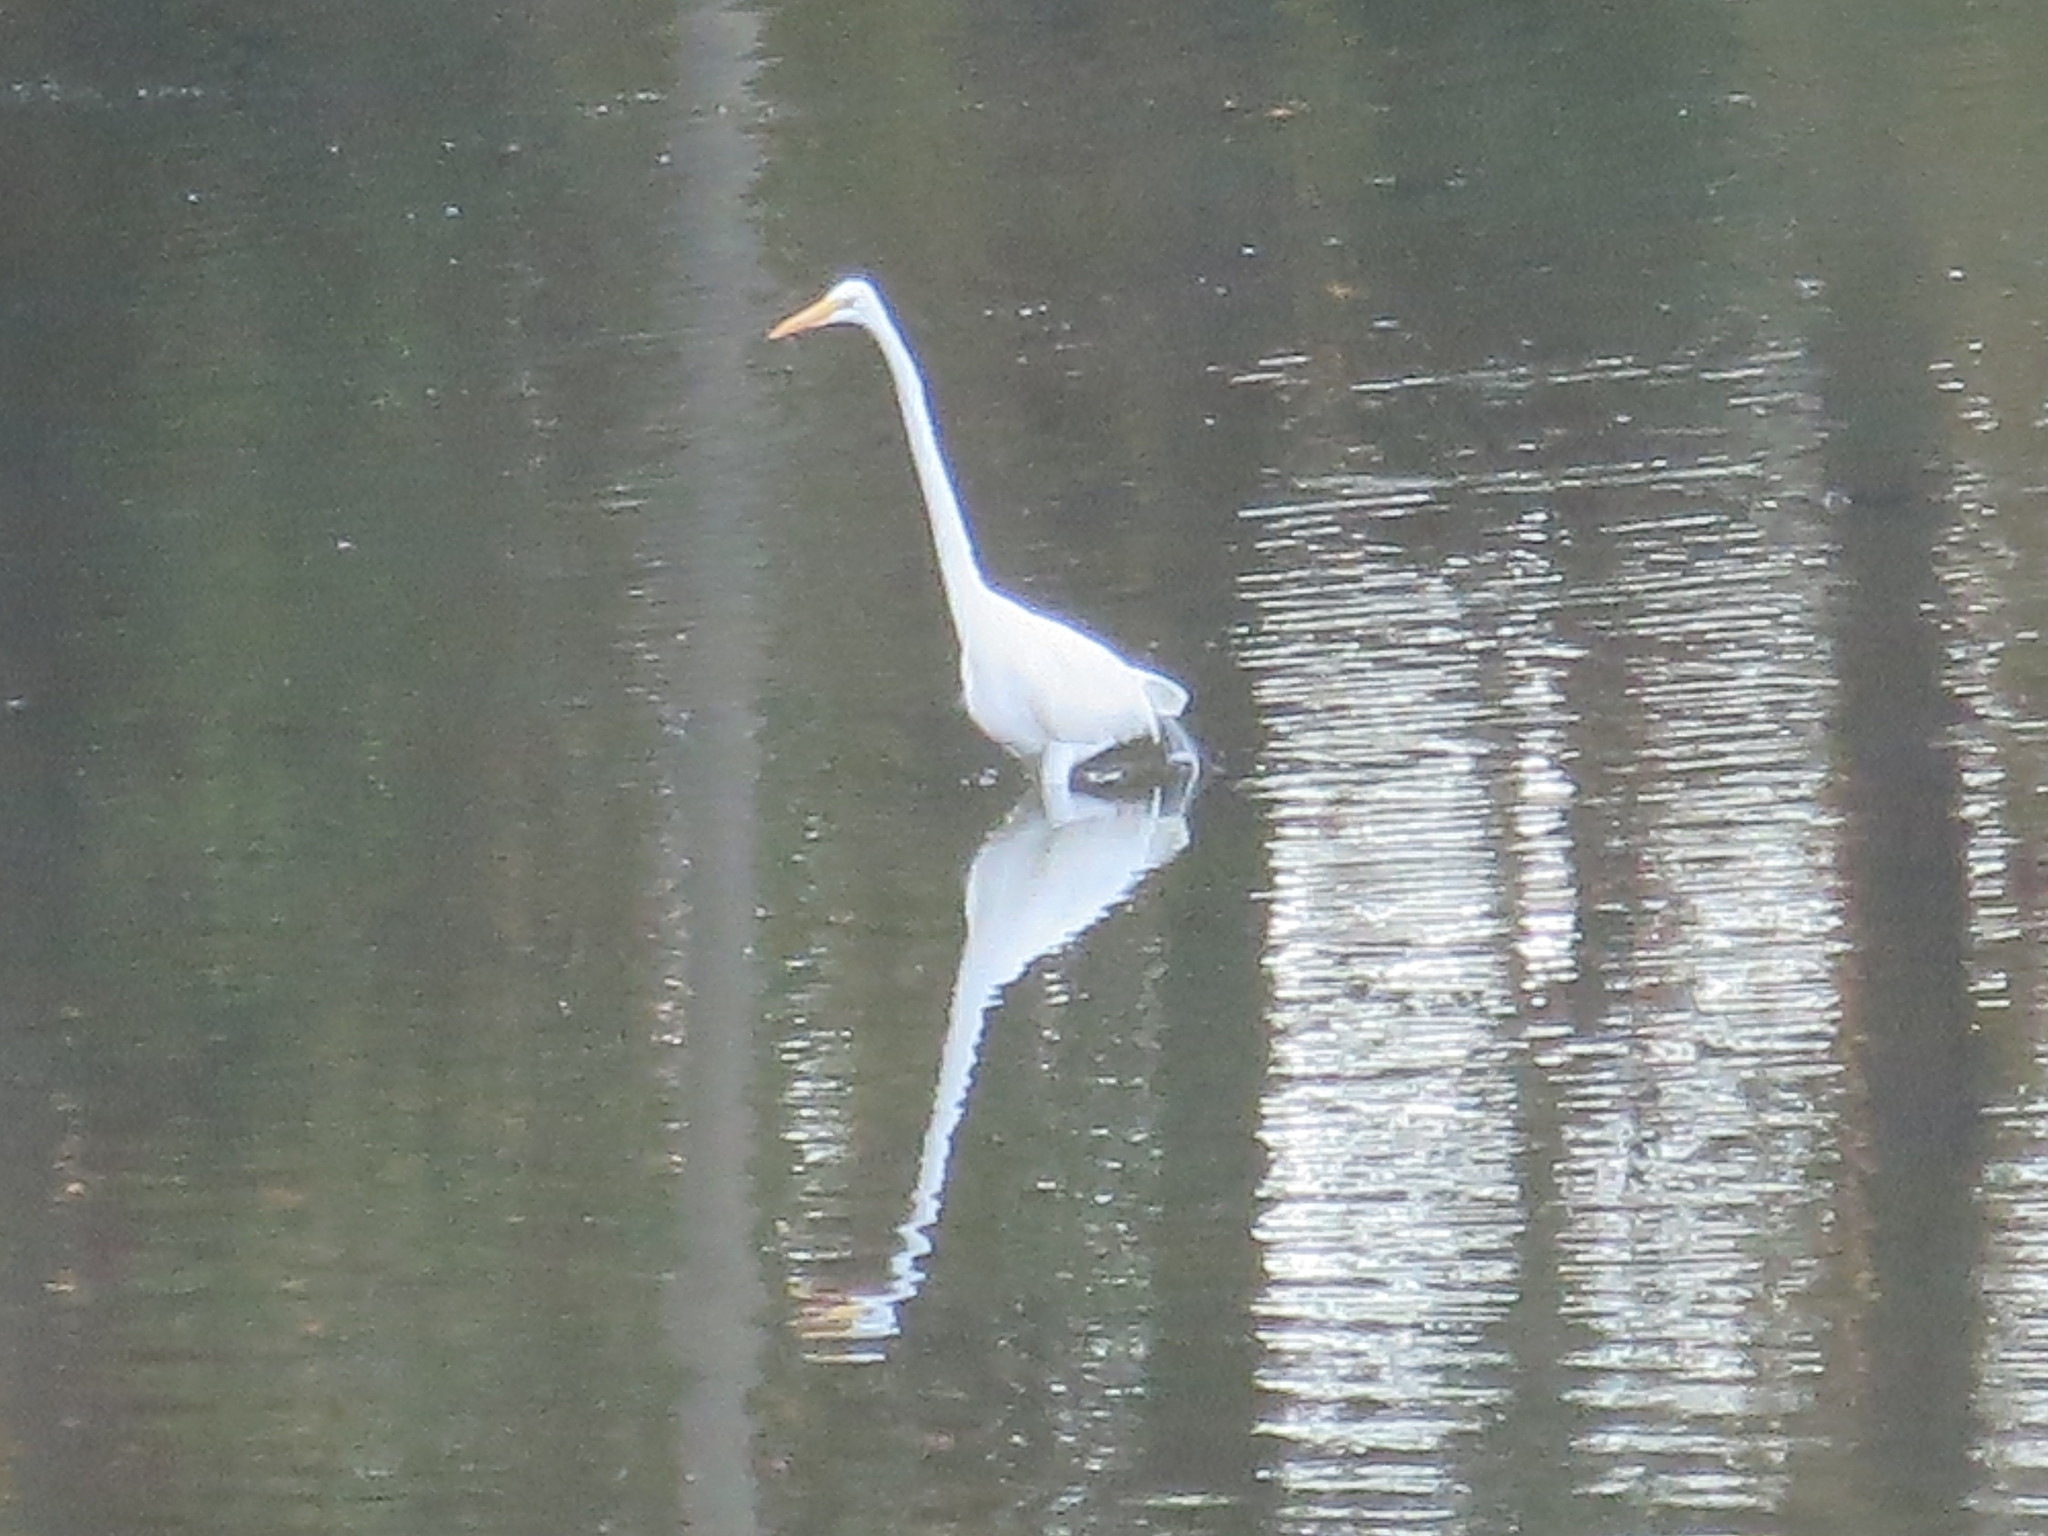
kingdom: Animalia
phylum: Chordata
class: Aves
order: Pelecaniformes
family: Ardeidae
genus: Ardea
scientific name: Ardea alba
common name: Great egret
